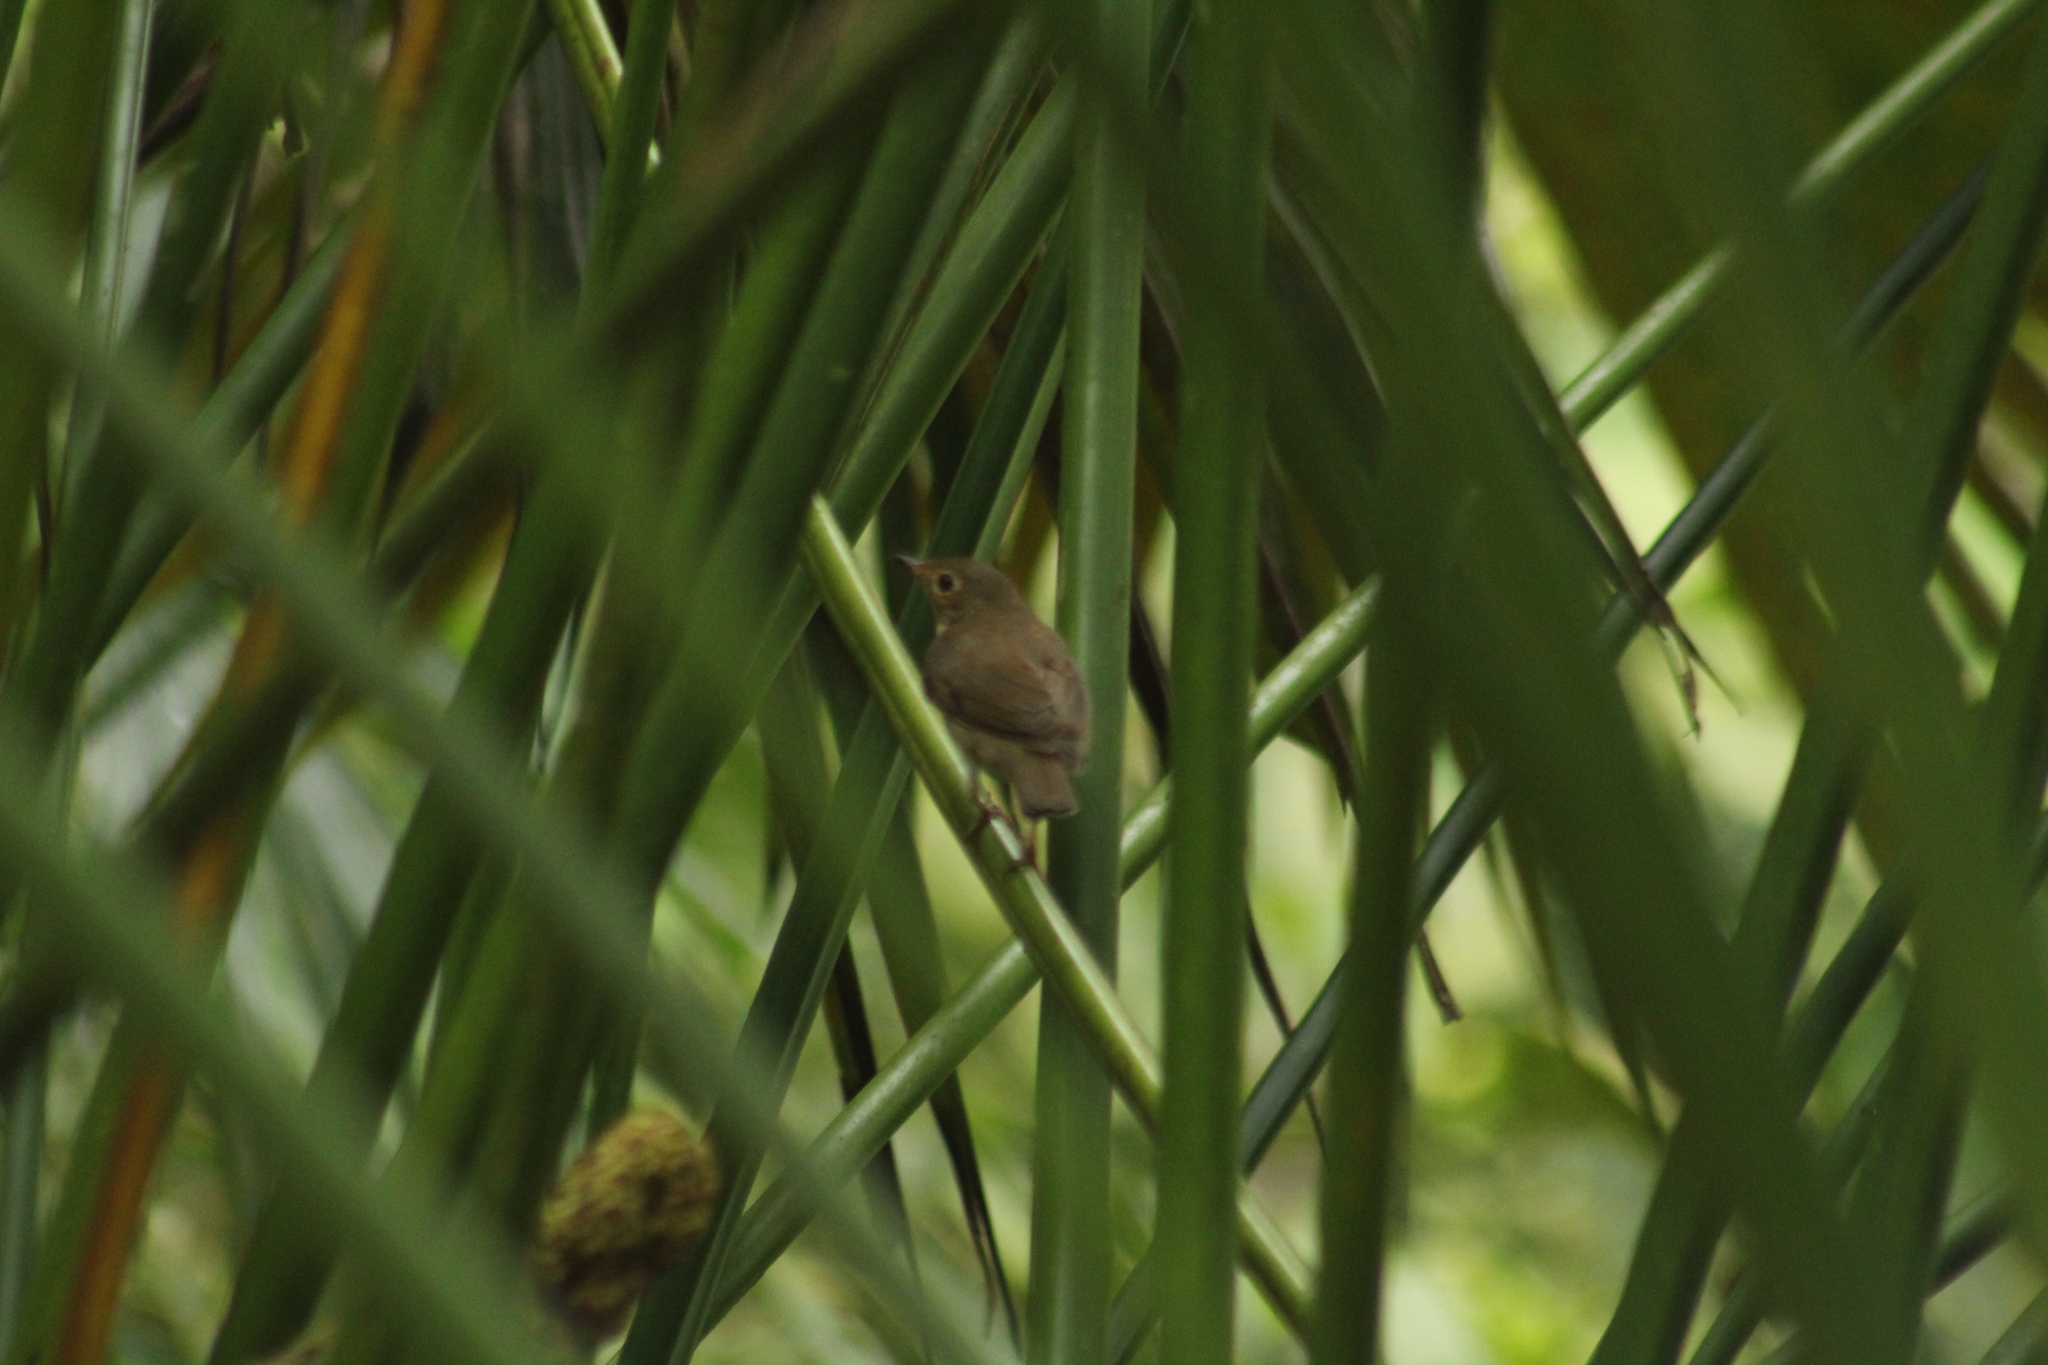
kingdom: Animalia
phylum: Chordata
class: Aves
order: Passeriformes
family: Turdidae
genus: Catharus
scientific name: Catharus ustulatus
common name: Swainson's thrush
